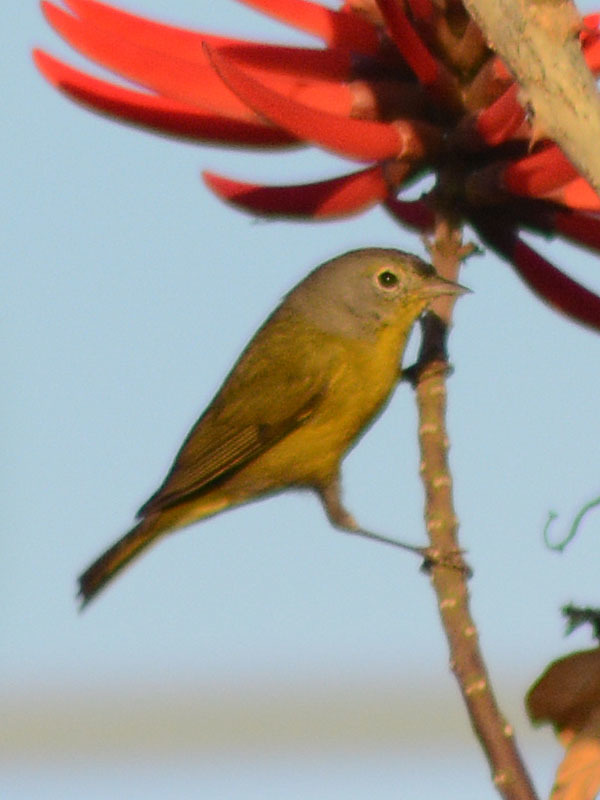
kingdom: Animalia
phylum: Chordata
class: Aves
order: Passeriformes
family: Parulidae
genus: Leiothlypis
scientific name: Leiothlypis ruficapilla
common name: Nashville warbler
